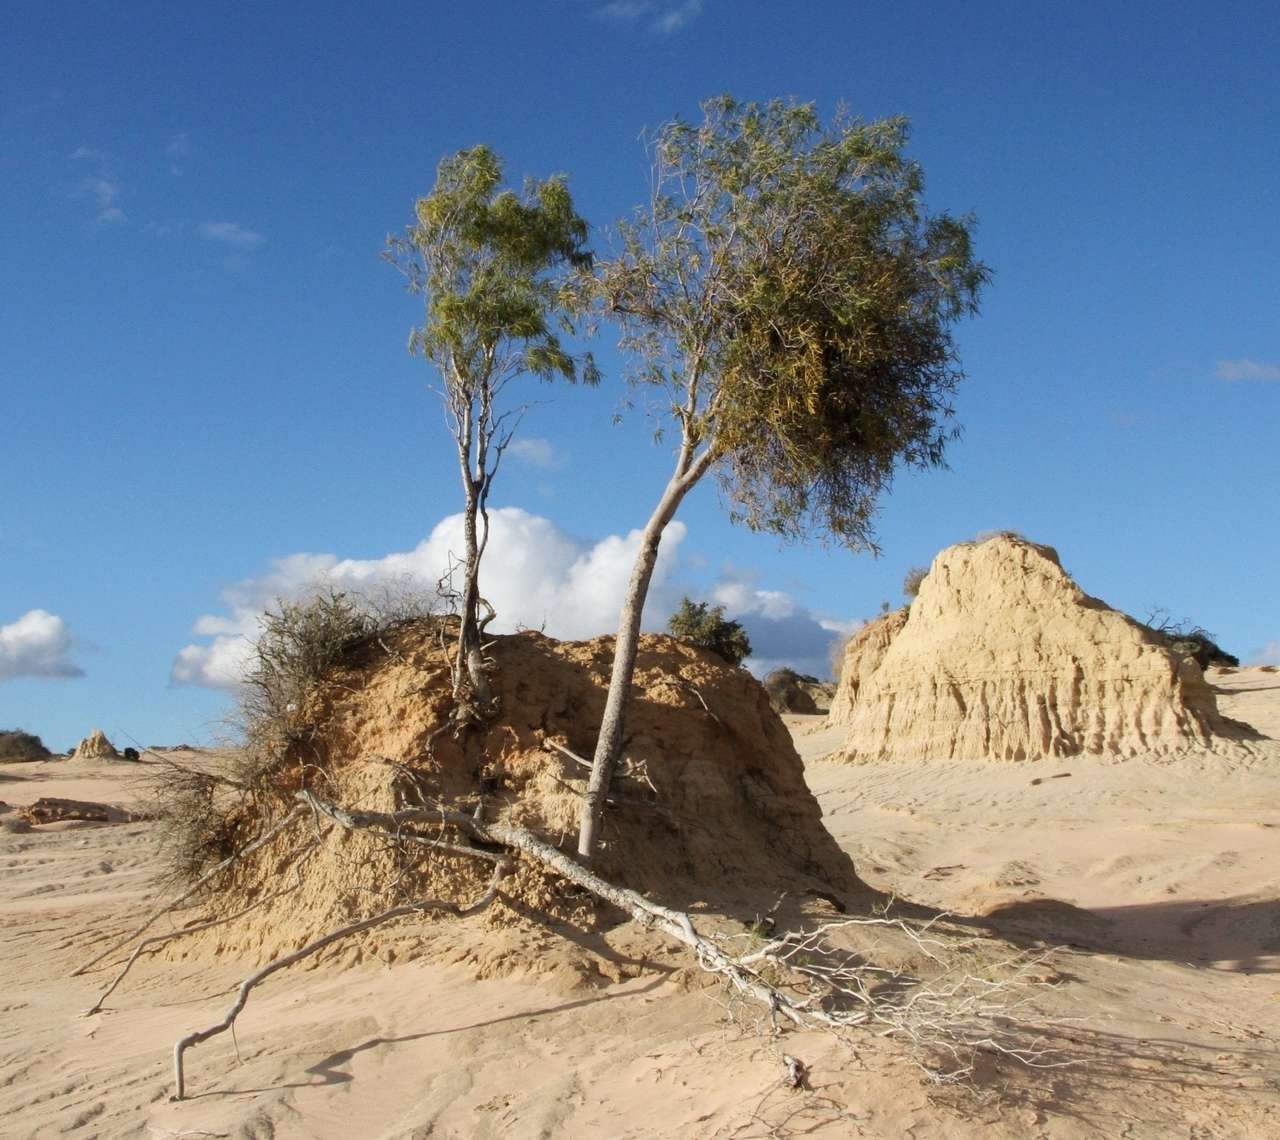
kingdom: Plantae
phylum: Tracheophyta
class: Magnoliopsida
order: Santalales
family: Loranthaceae
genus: Lysiana
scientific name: Lysiana exocarpi
